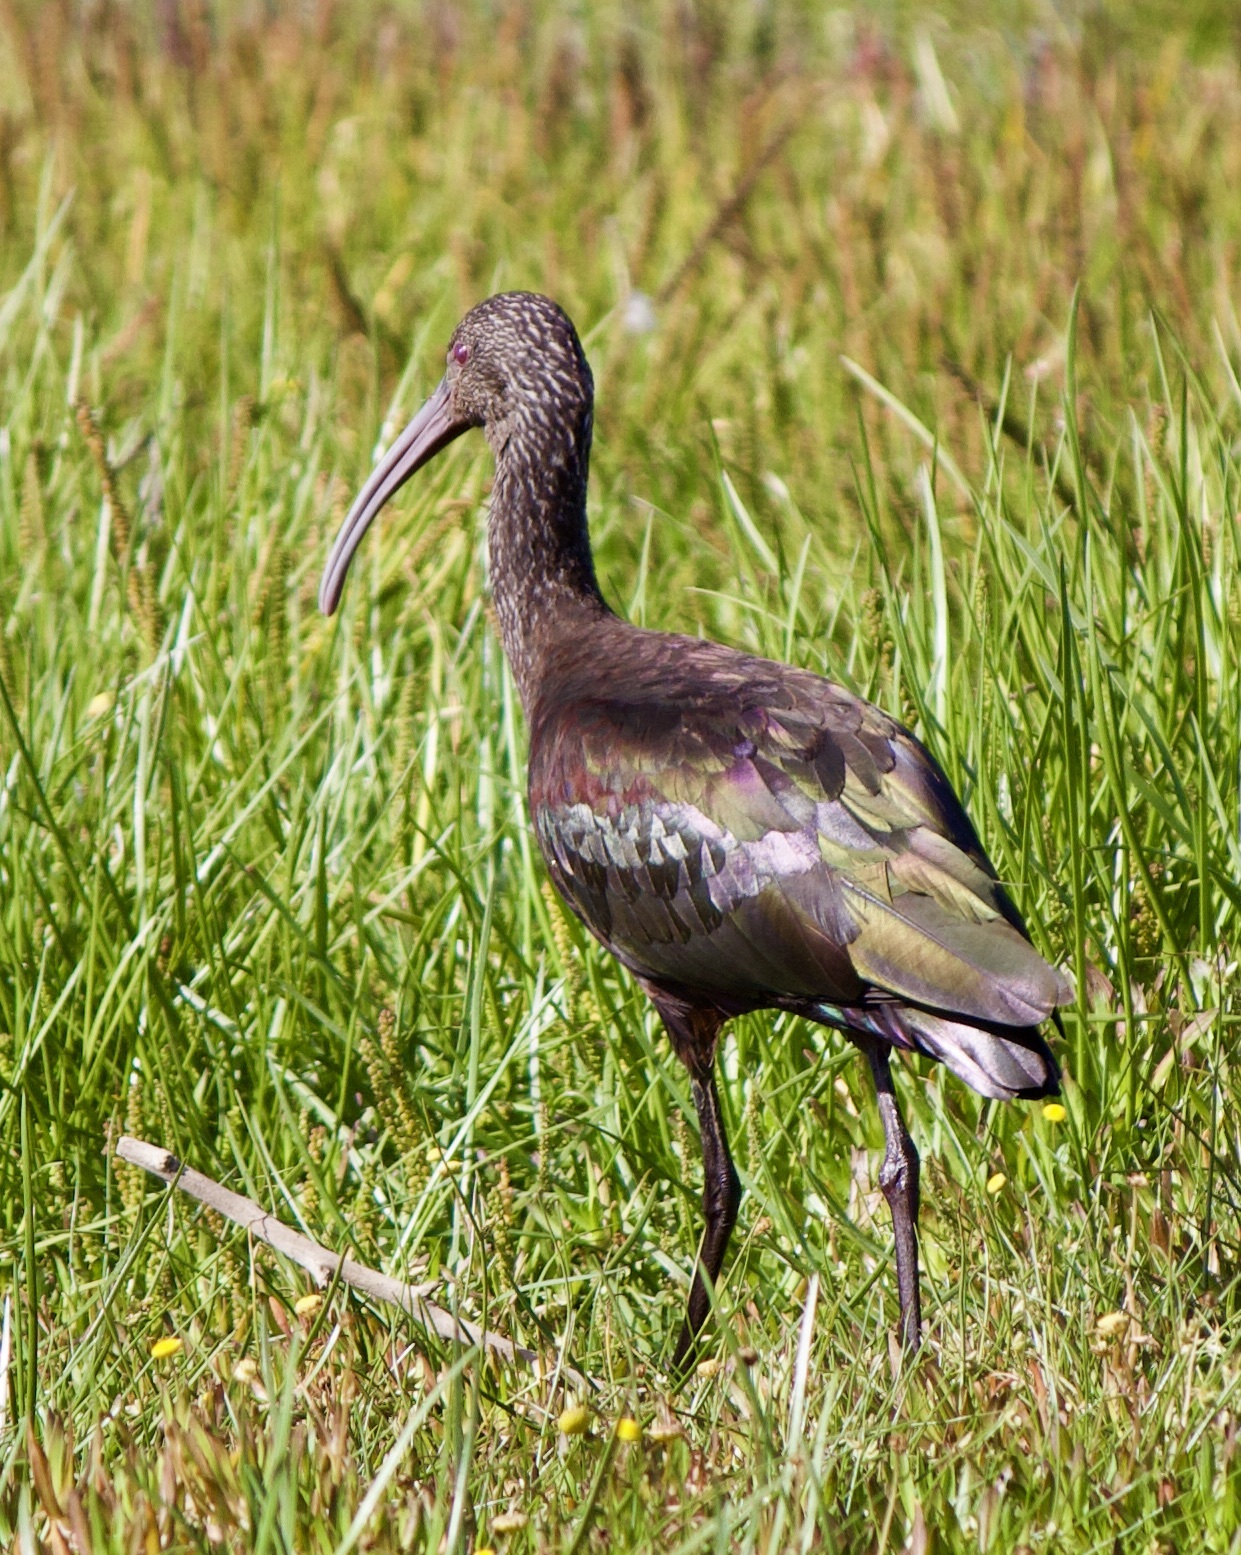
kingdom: Animalia
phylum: Chordata
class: Aves
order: Pelecaniformes
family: Threskiornithidae
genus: Plegadis
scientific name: Plegadis chihi
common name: White-faced ibis
